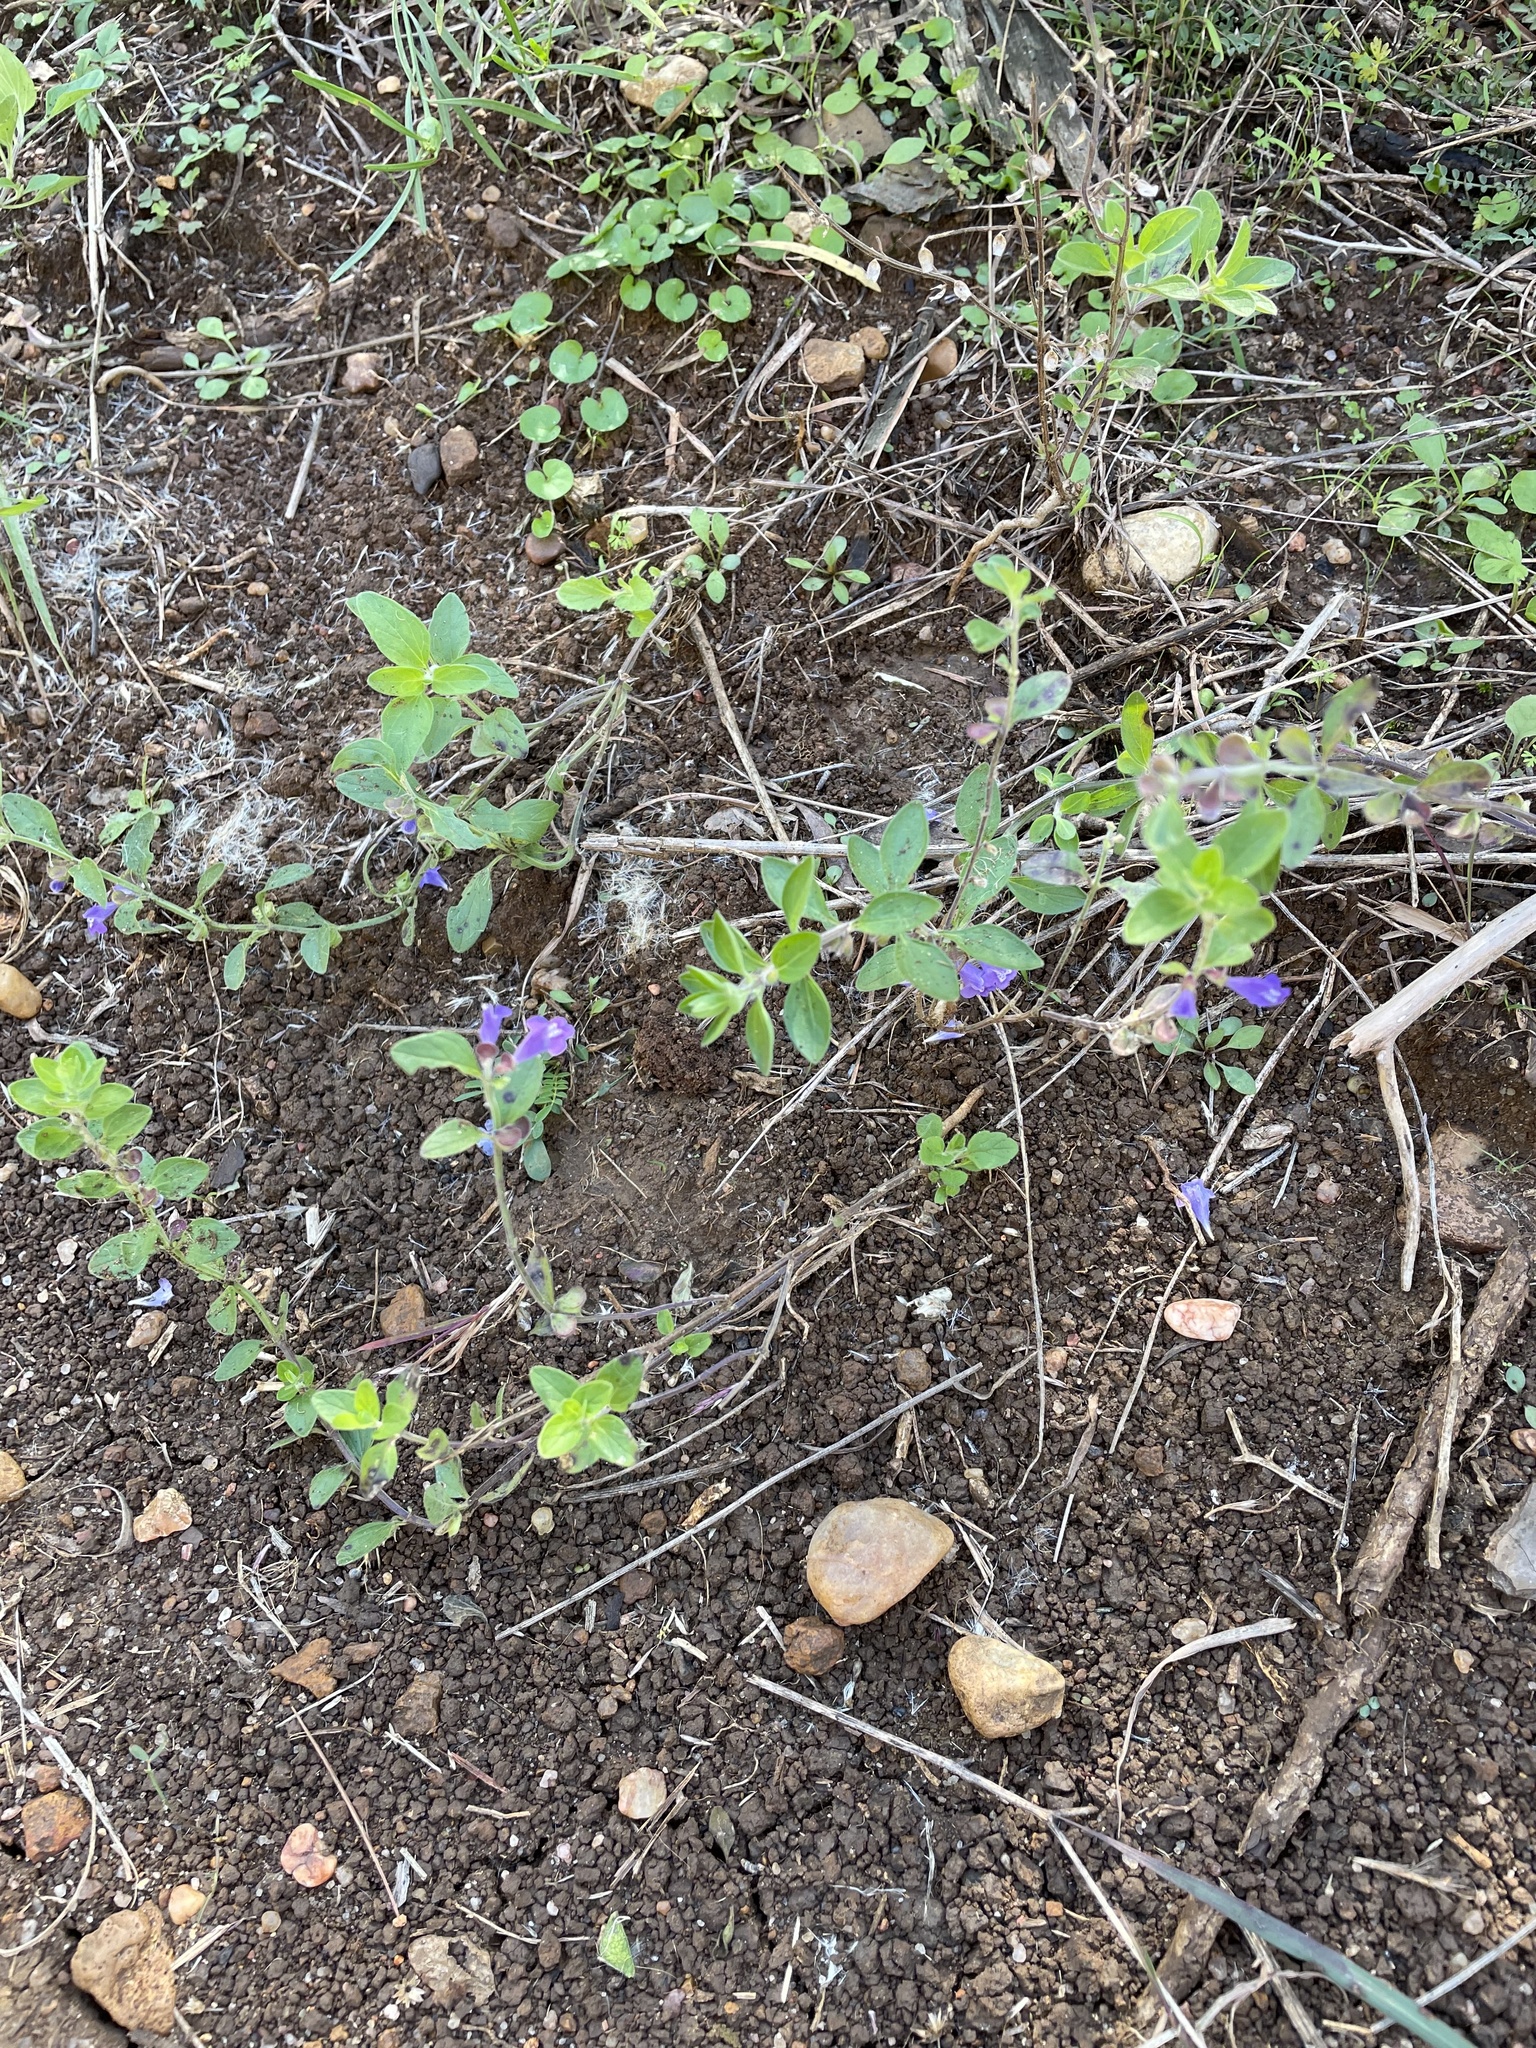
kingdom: Plantae
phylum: Tracheophyta
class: Magnoliopsida
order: Lamiales
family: Lamiaceae
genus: Scutellaria
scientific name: Scutellaria drummondii
